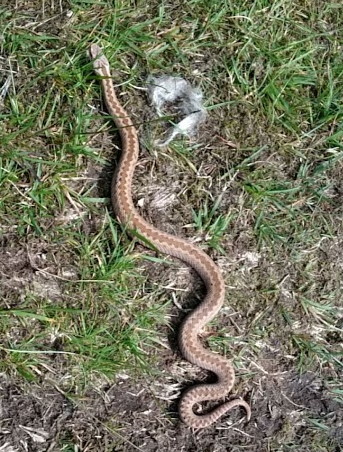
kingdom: Animalia
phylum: Chordata
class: Squamata
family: Viperidae
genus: Vipera
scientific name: Vipera berus
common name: Adder
